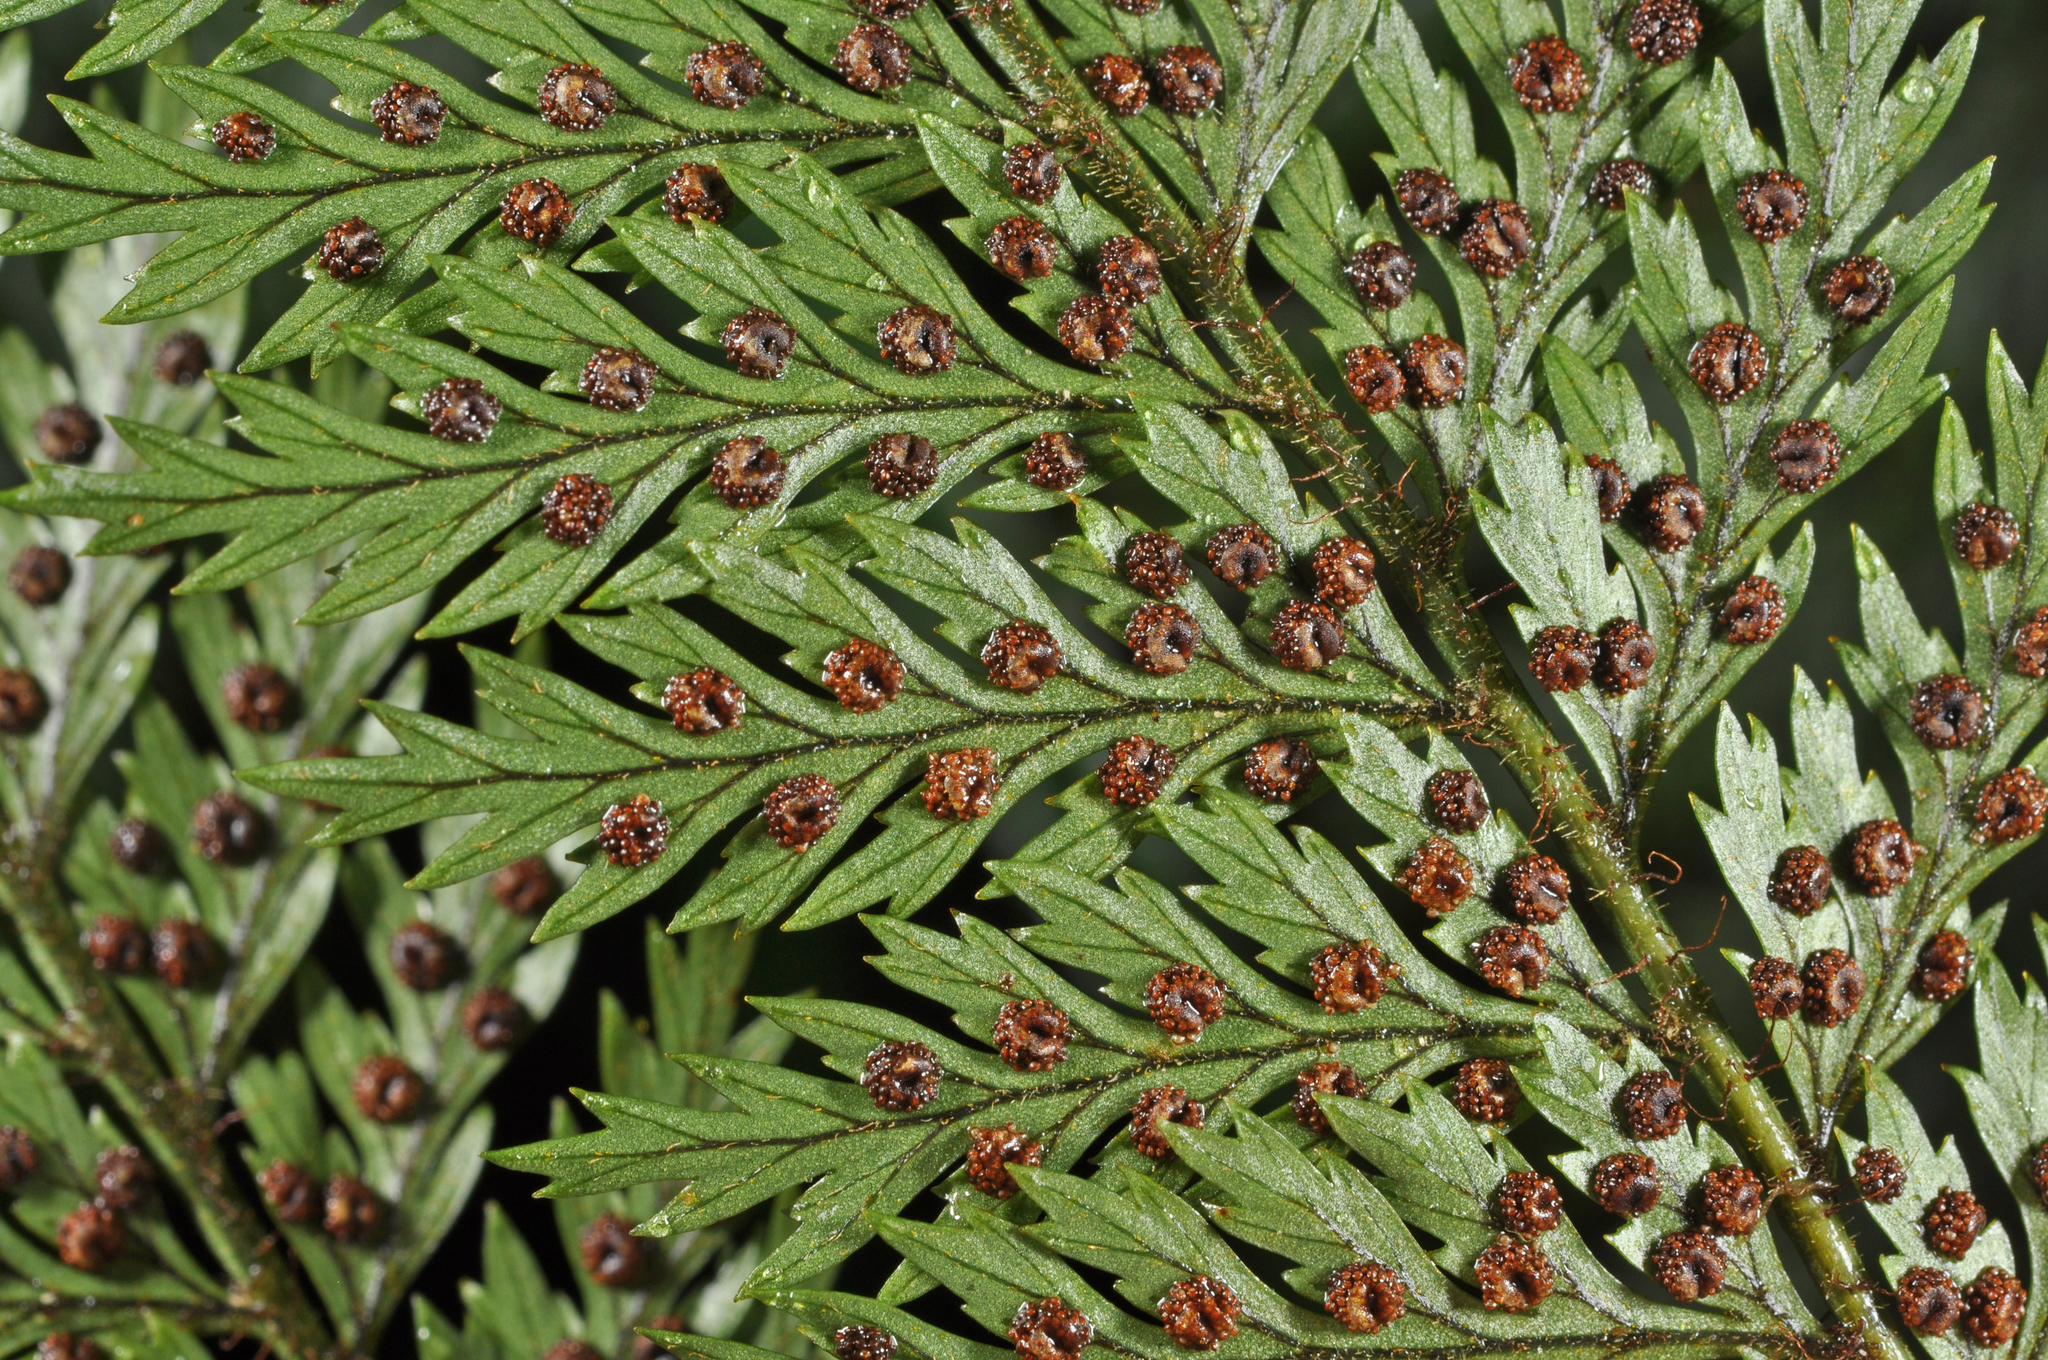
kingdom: Plantae
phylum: Tracheophyta
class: Polypodiopsida
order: Polypodiales
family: Dryopteridaceae
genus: Lastreopsis
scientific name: Lastreopsis hispida
